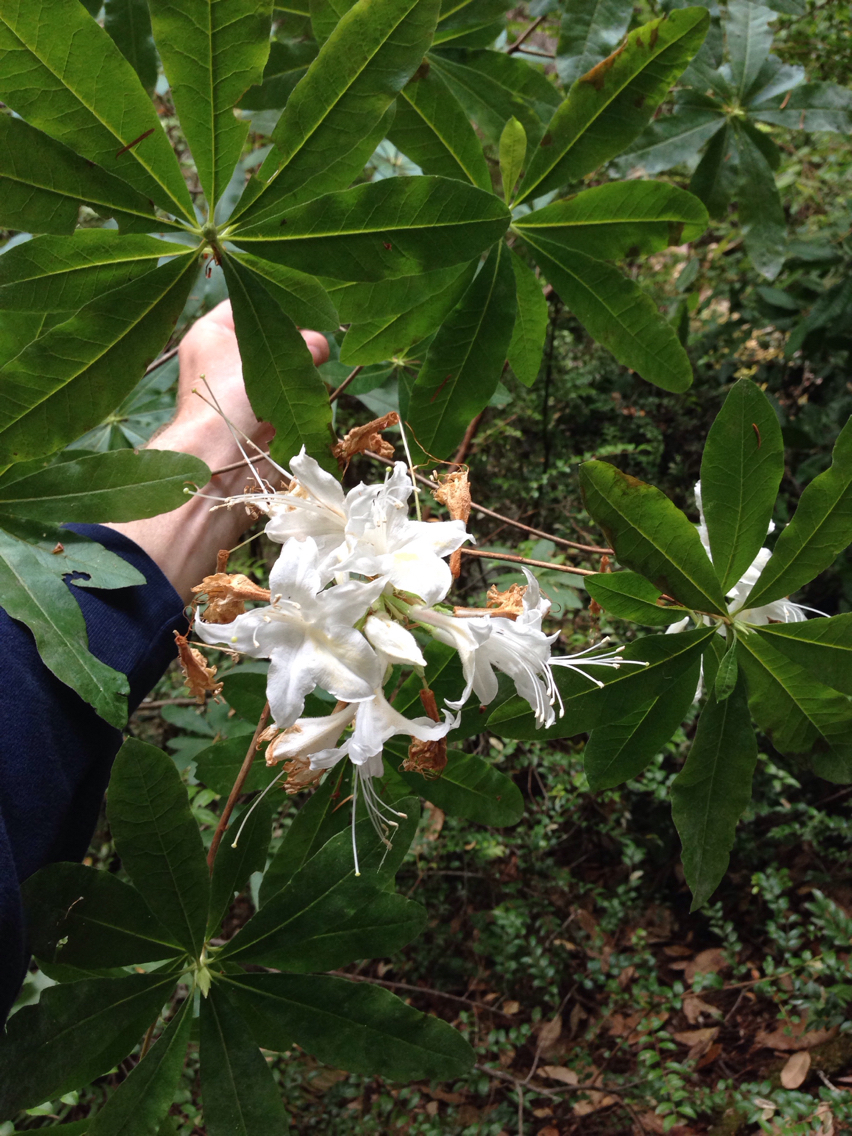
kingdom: Plantae
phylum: Tracheophyta
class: Magnoliopsida
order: Ericales
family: Ericaceae
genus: Rhododendron
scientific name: Rhododendron occidentale
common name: Western azalea
